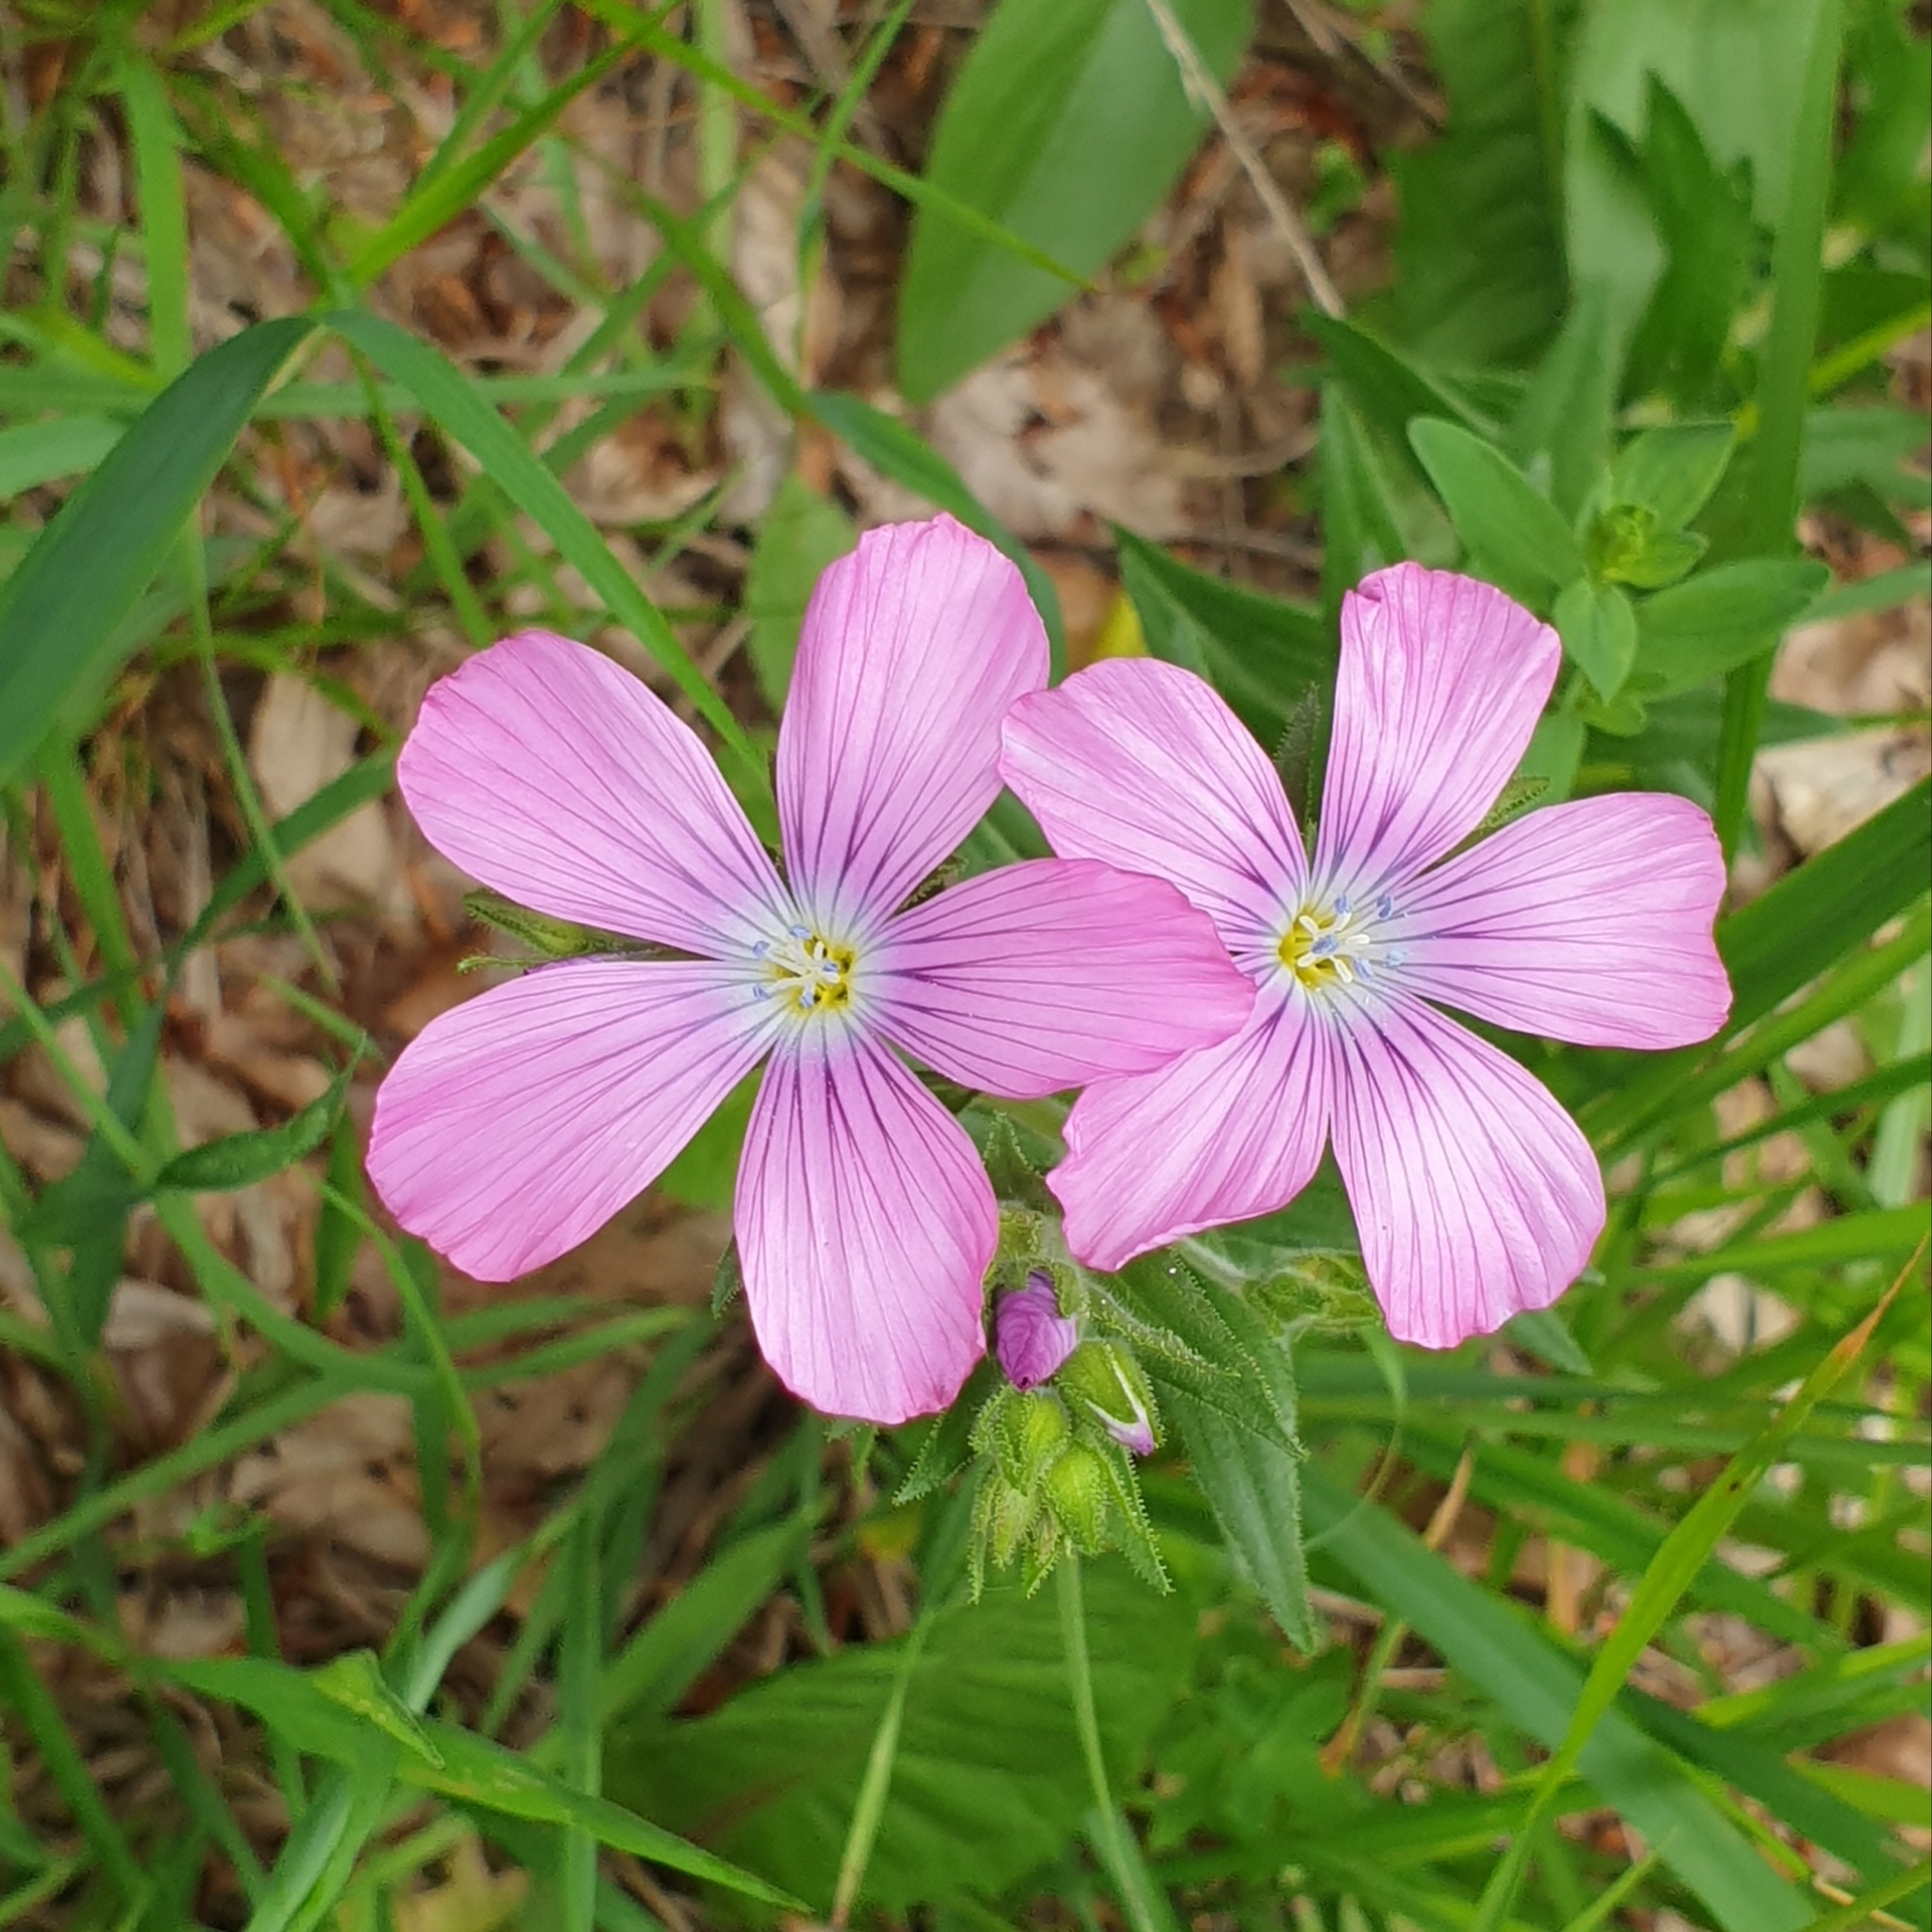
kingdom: Plantae
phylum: Tracheophyta
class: Magnoliopsida
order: Malpighiales
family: Linaceae
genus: Linum
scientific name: Linum viscosum
